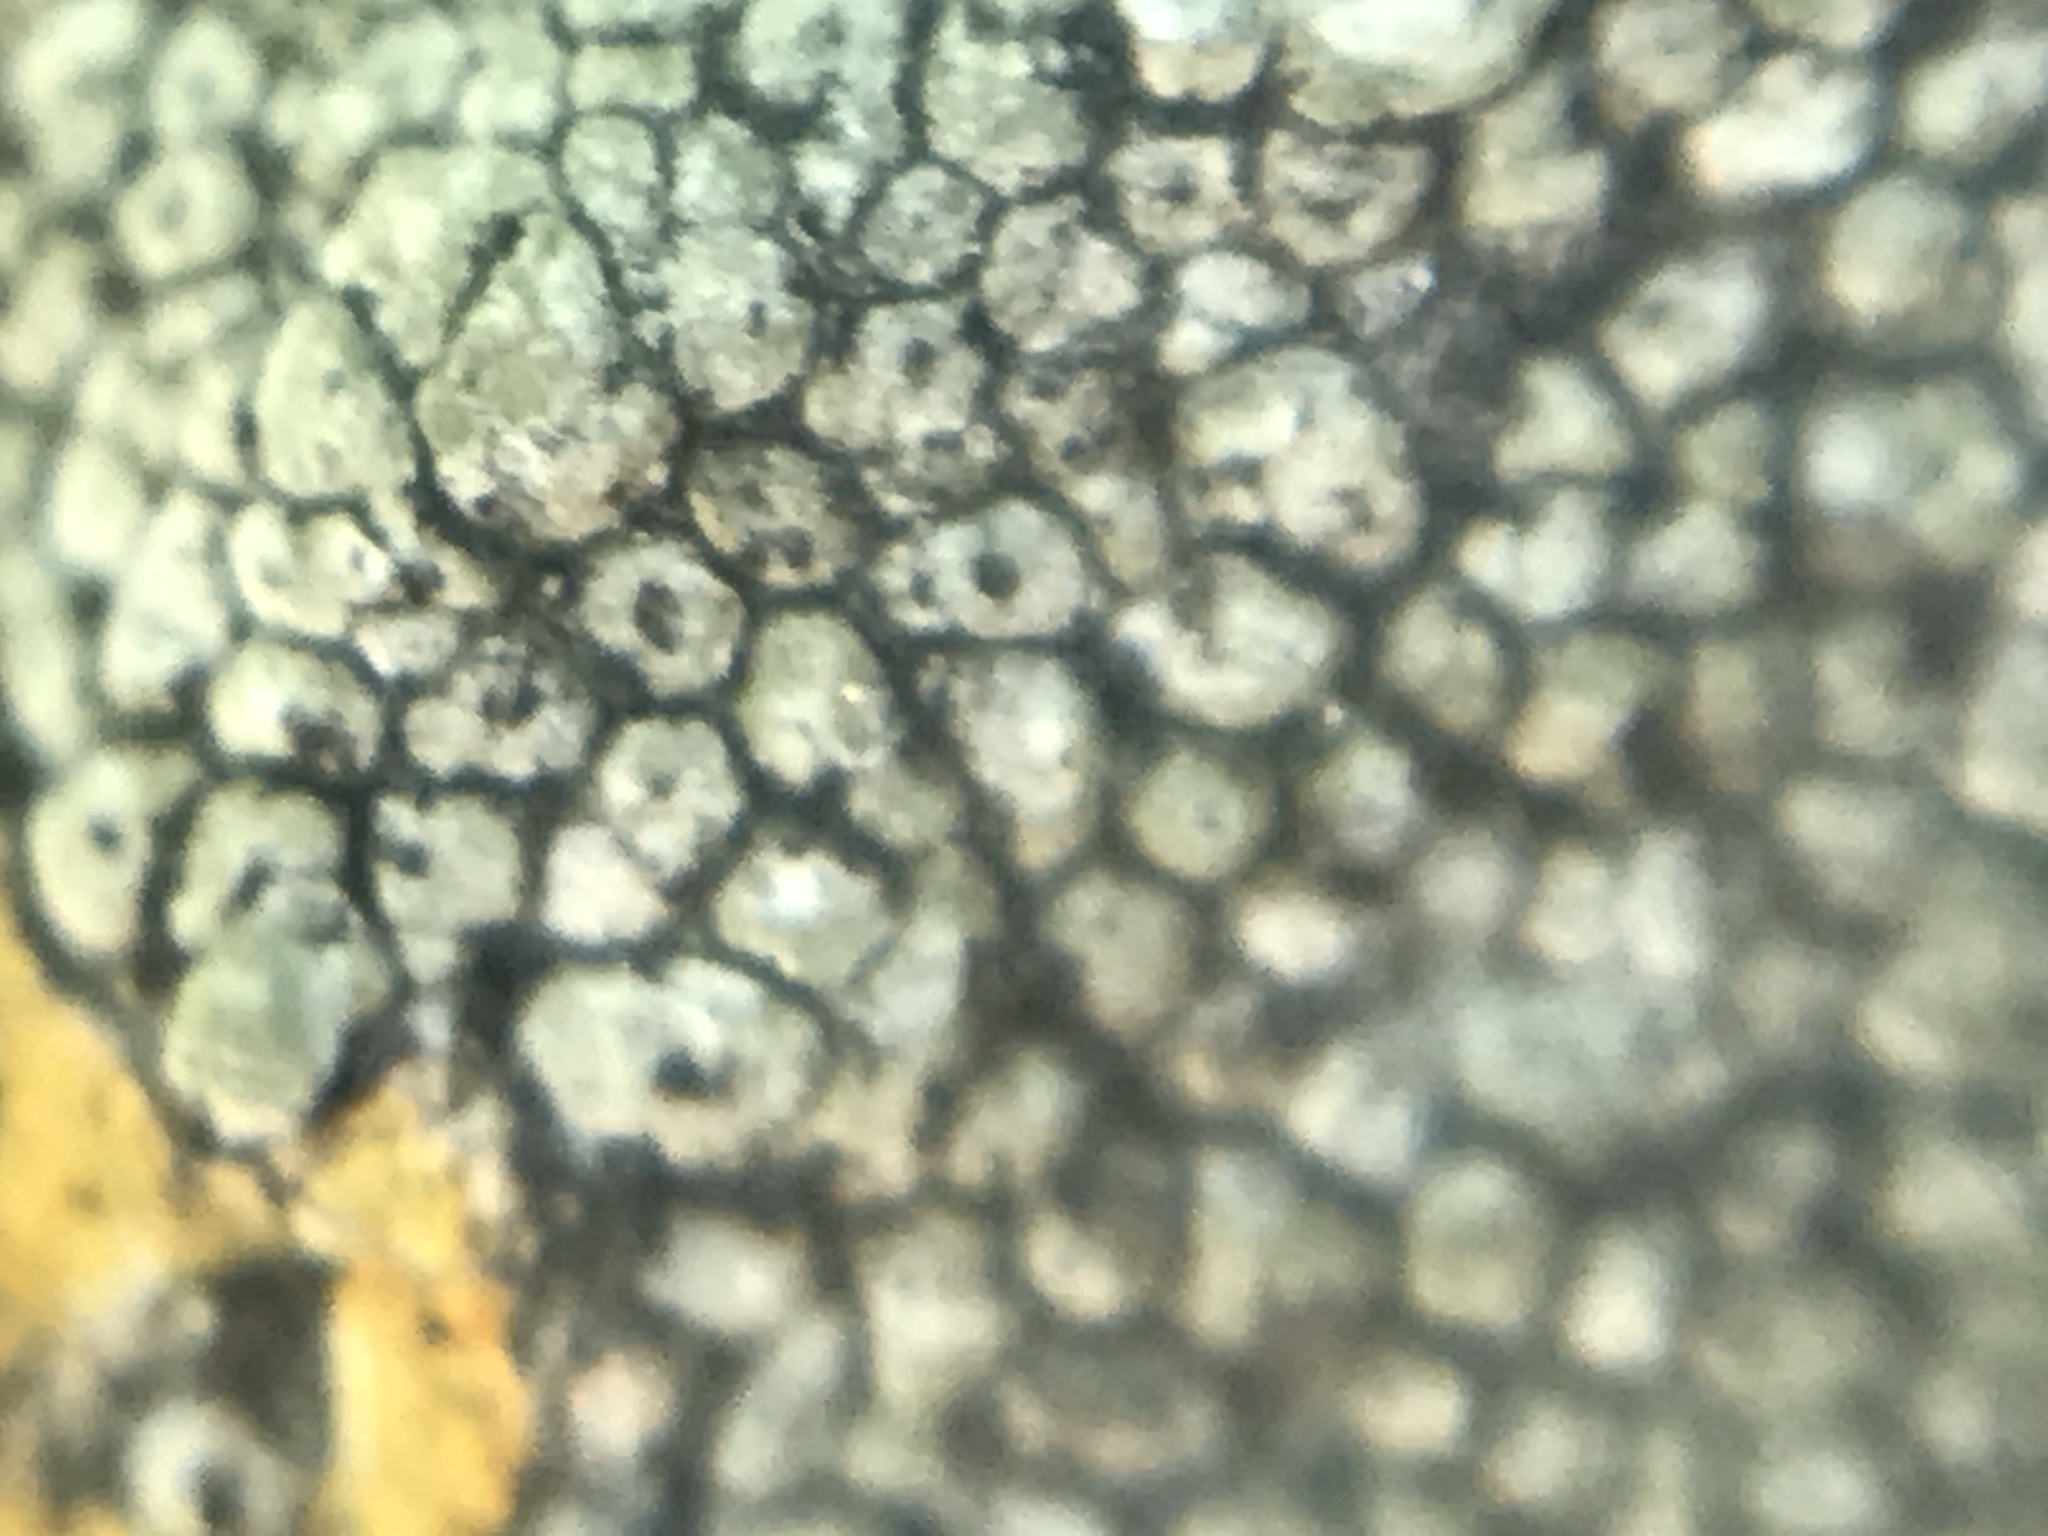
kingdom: Fungi
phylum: Ascomycota
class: Lecanoromycetes
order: Pertusariales
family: Megasporaceae
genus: Circinaria
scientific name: Circinaria contorta
